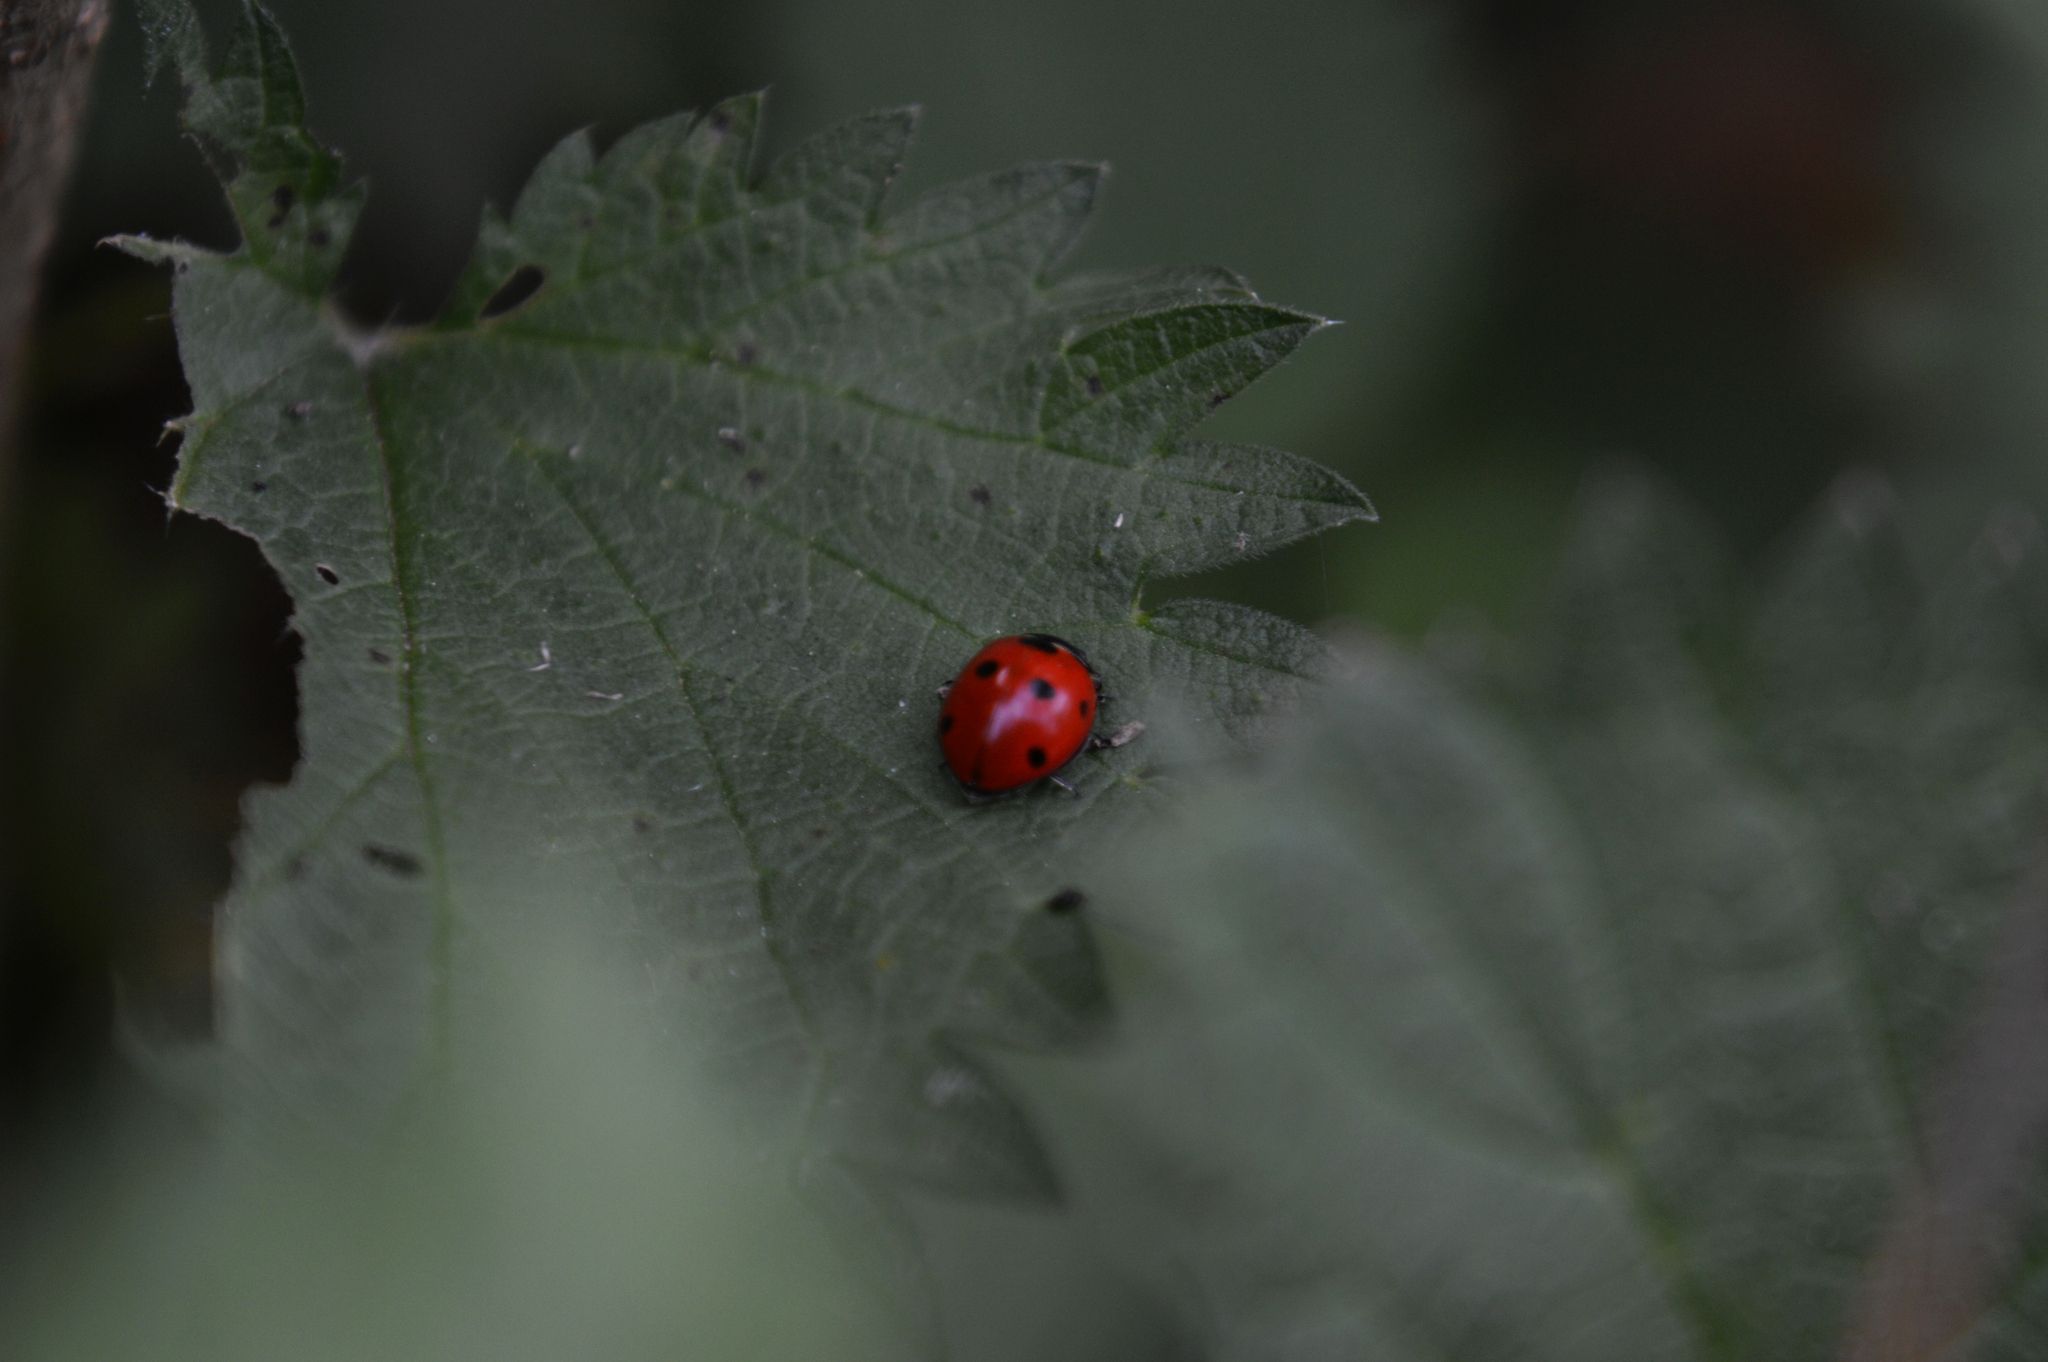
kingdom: Animalia
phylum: Arthropoda
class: Insecta
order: Coleoptera
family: Coccinellidae
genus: Coccinella
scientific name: Coccinella septempunctata
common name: Sevenspotted lady beetle
